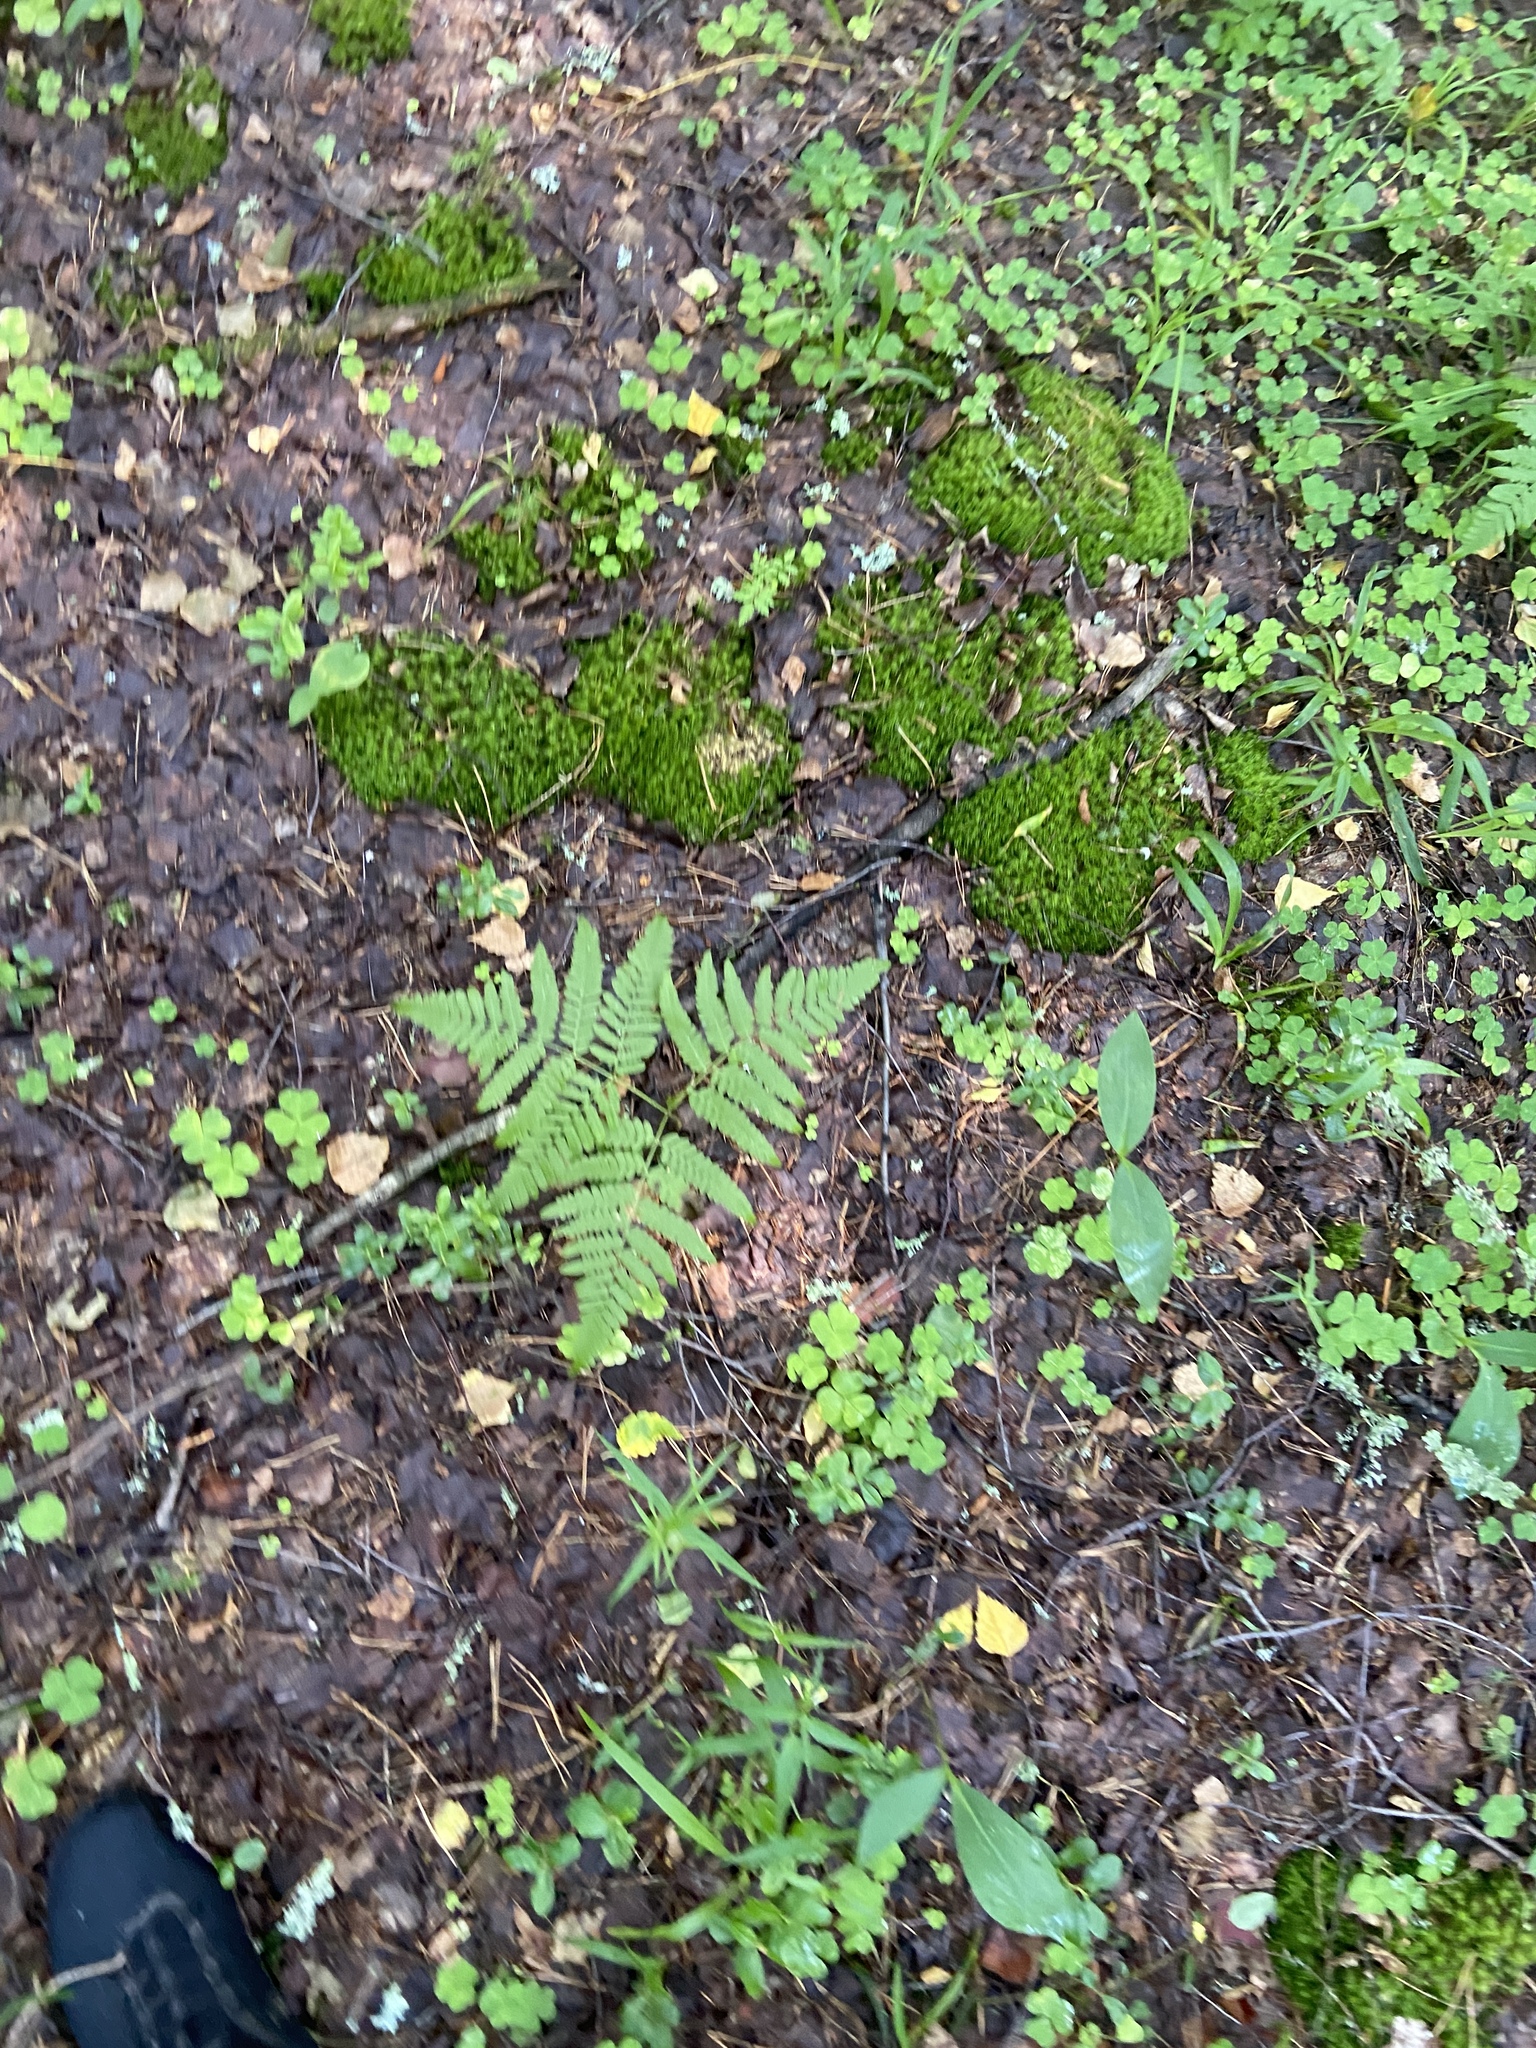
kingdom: Plantae
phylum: Tracheophyta
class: Polypodiopsida
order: Polypodiales
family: Cystopteridaceae
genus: Gymnocarpium
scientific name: Gymnocarpium dryopteris
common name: Oak fern
